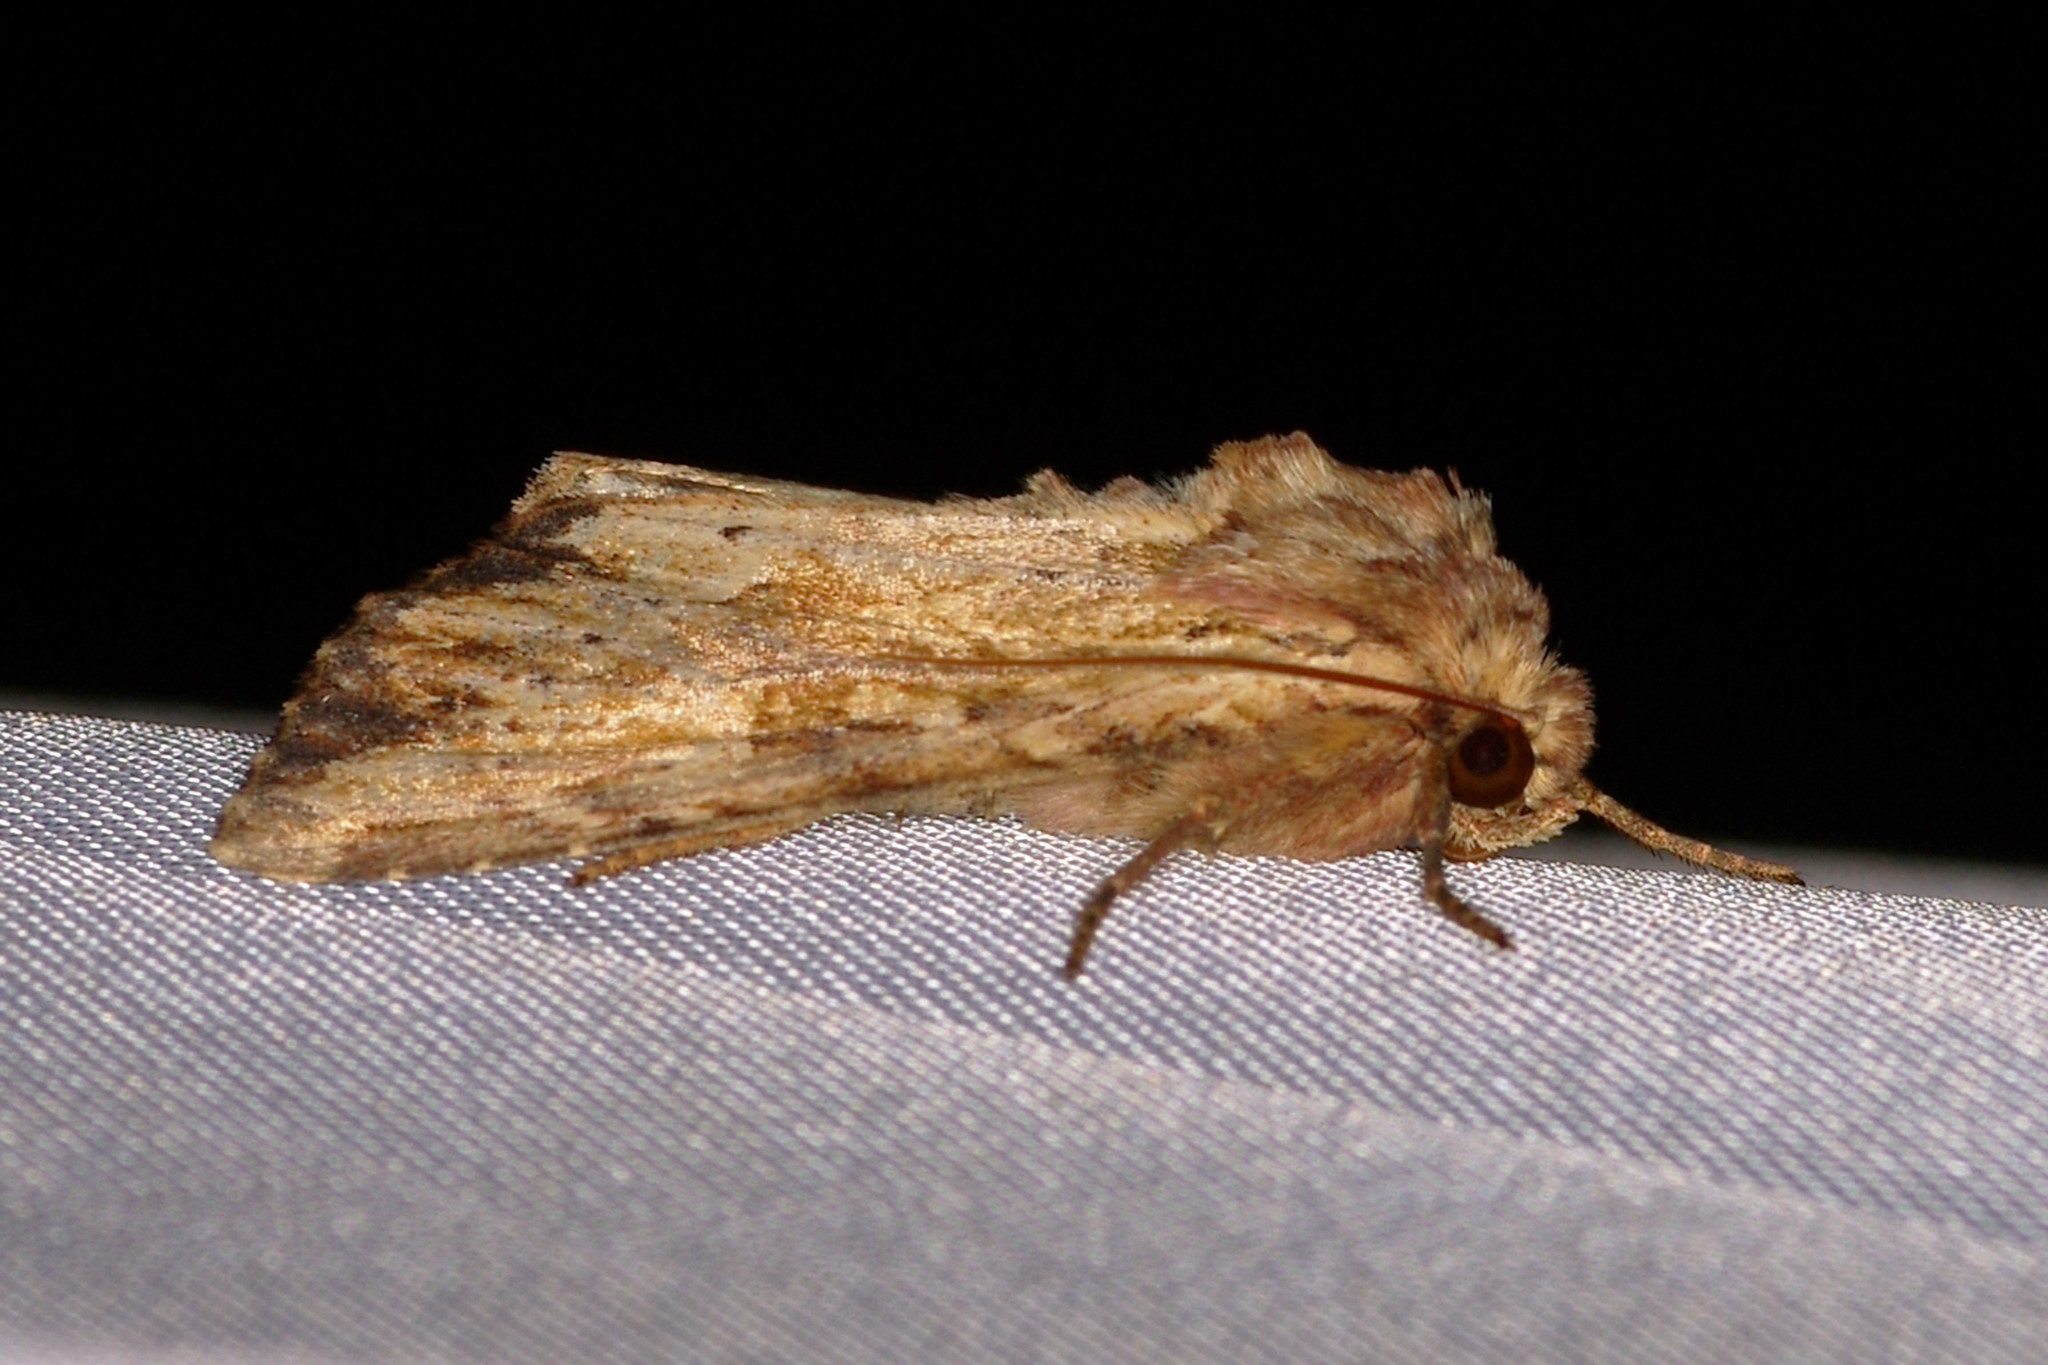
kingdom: Animalia
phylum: Arthropoda
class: Insecta
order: Lepidoptera
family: Noctuidae
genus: Apamea
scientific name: Apamea sublustris
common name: Reddish light arches
